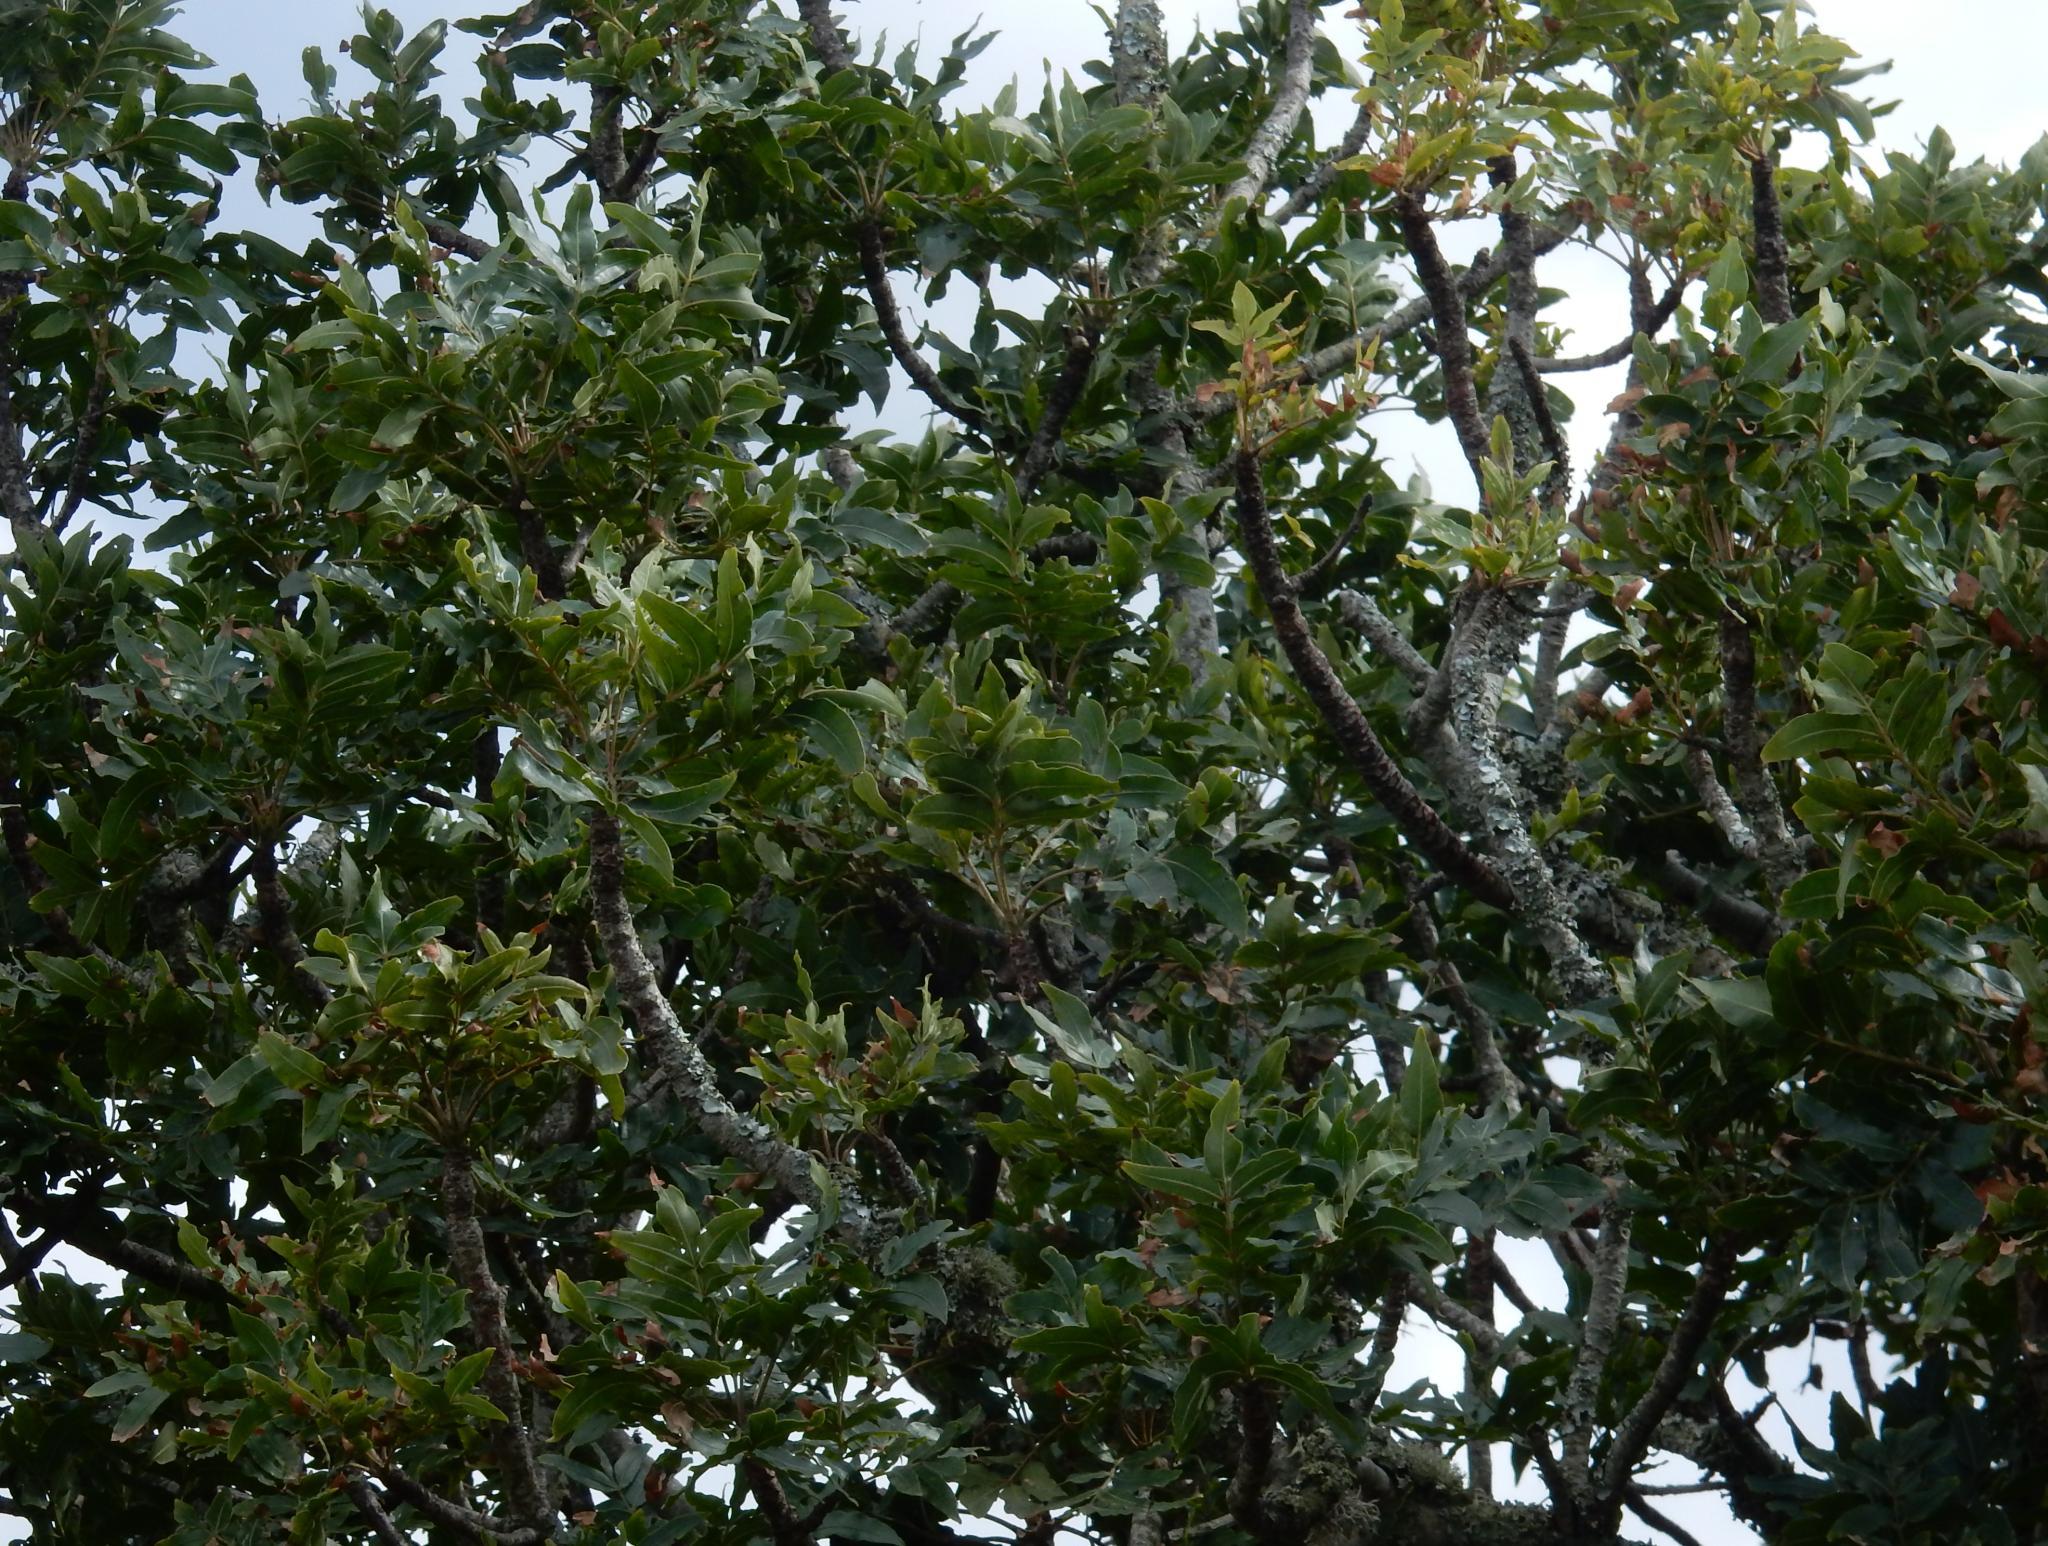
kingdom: Plantae
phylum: Tracheophyta
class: Magnoliopsida
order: Sapindales
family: Anacardiaceae
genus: Harpephyllum
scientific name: Harpephyllum caffrum
